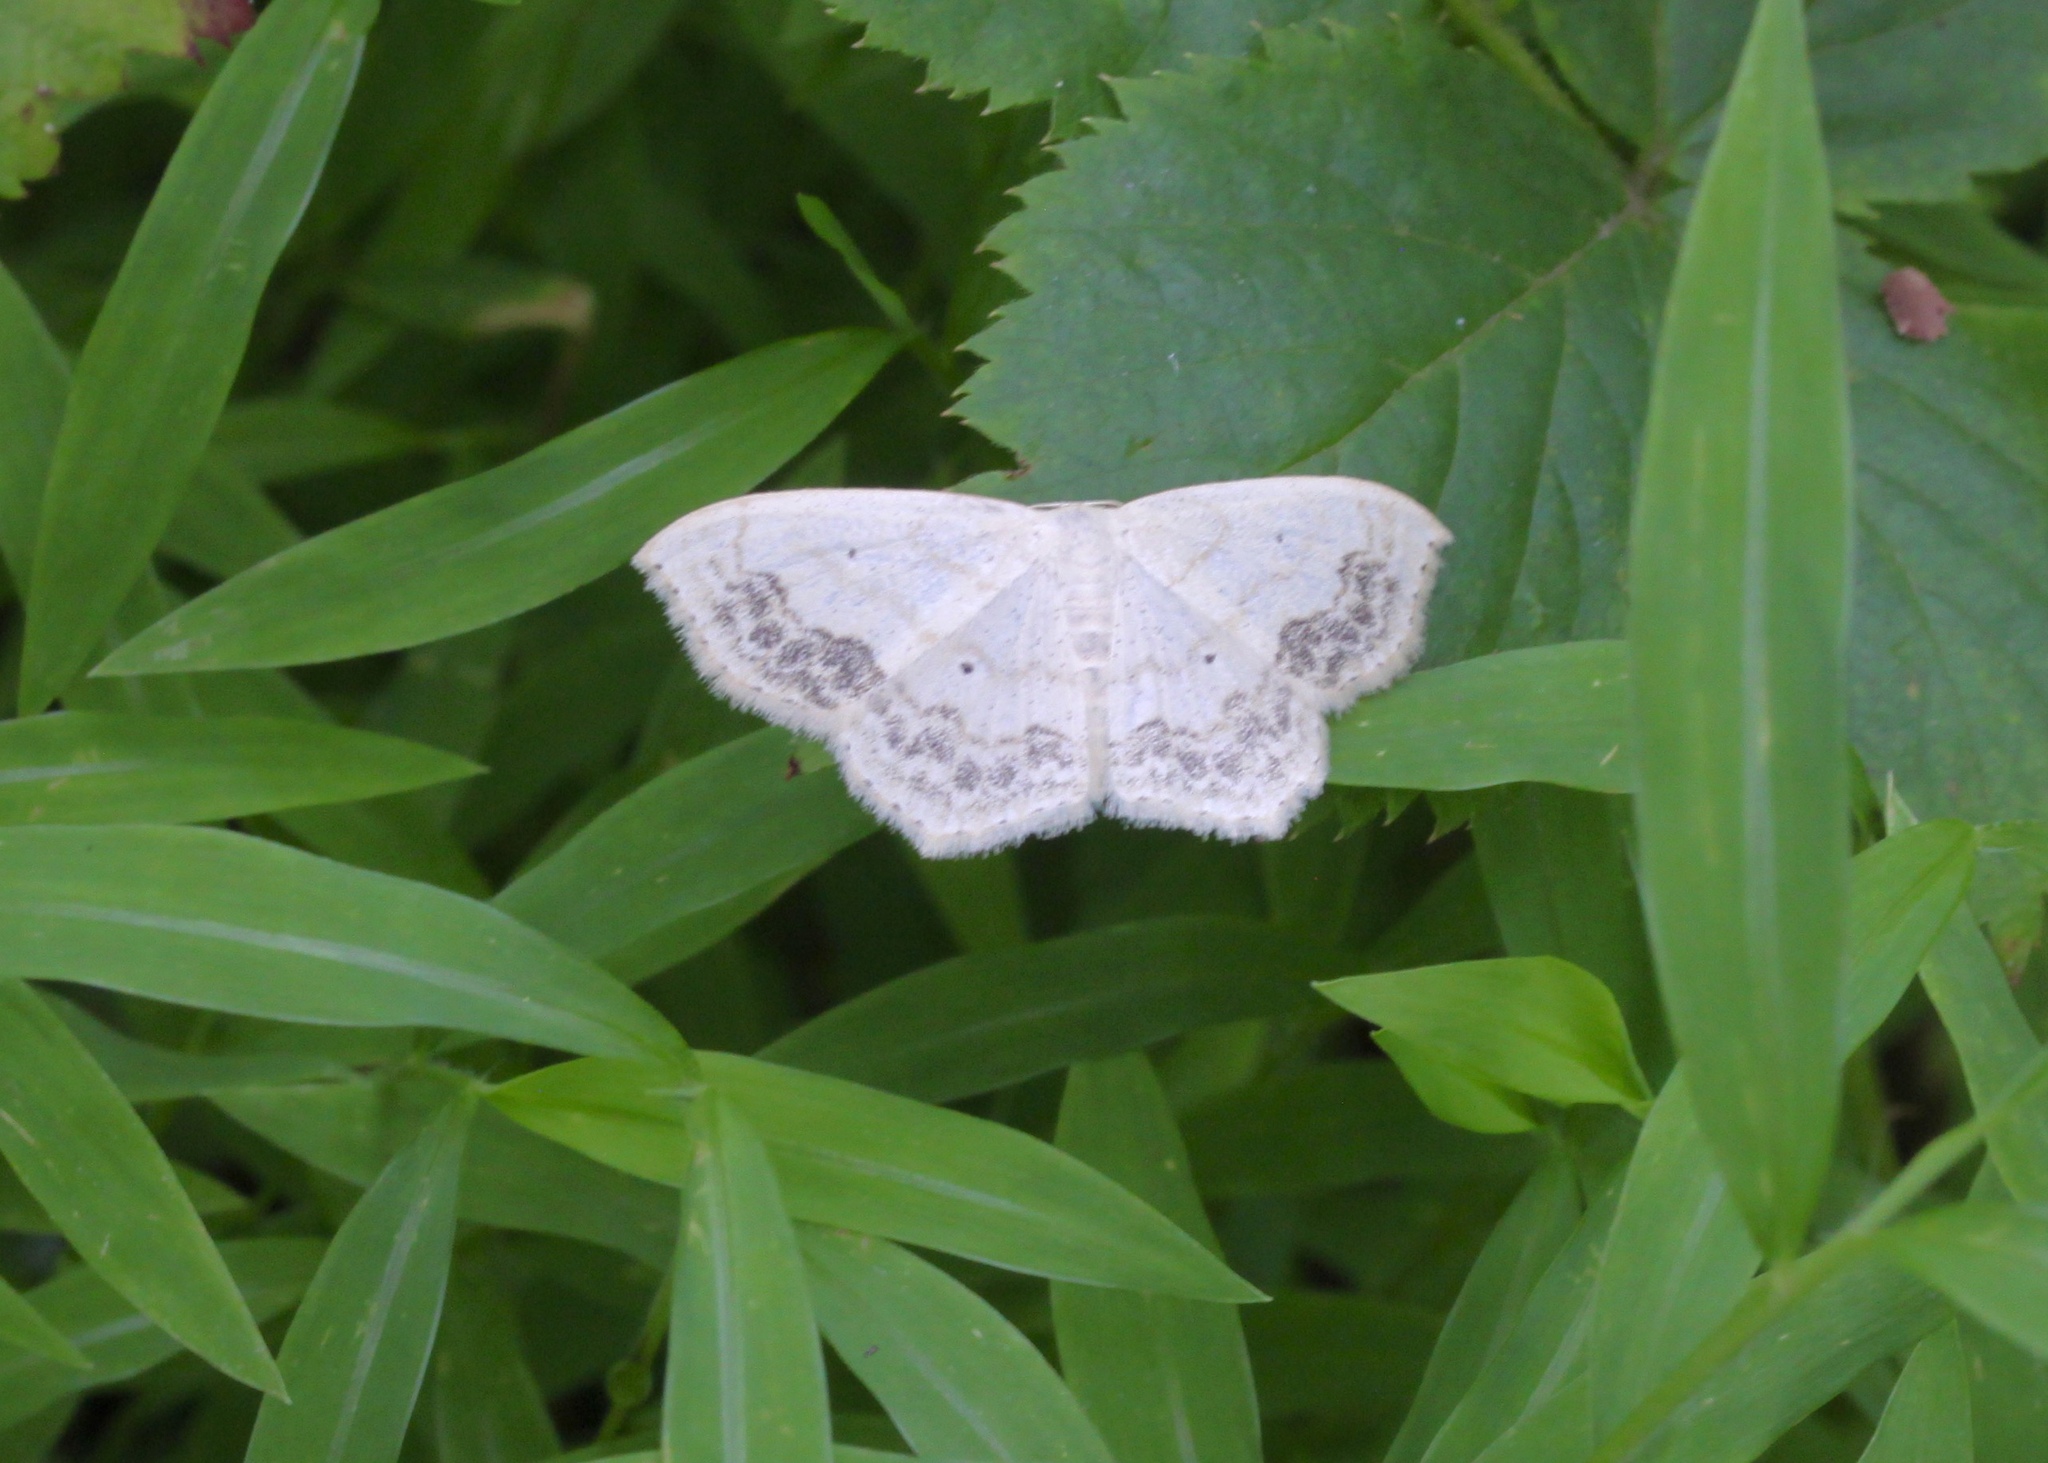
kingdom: Animalia
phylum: Arthropoda
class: Insecta
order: Lepidoptera
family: Geometridae
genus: Scopula
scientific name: Scopula limboundata
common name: Large lace border
